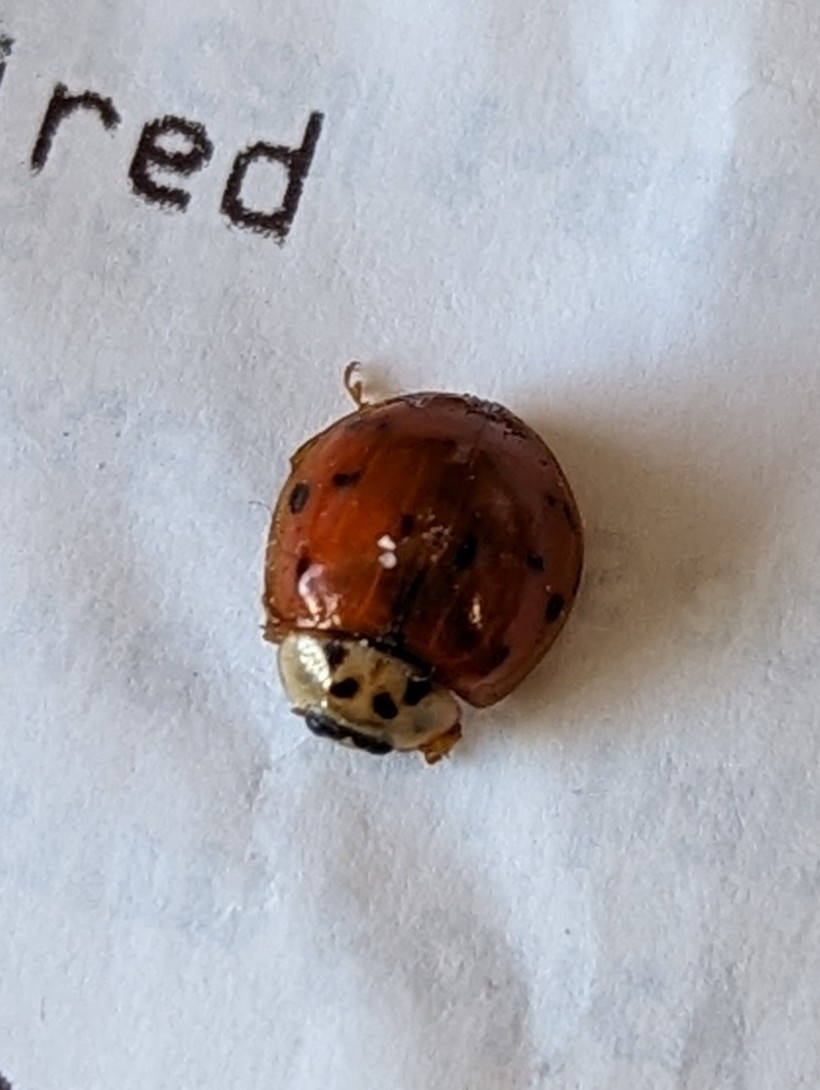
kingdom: Animalia
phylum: Arthropoda
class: Insecta
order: Coleoptera
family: Coccinellidae
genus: Harmonia
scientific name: Harmonia axyridis
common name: Harlequin ladybird
